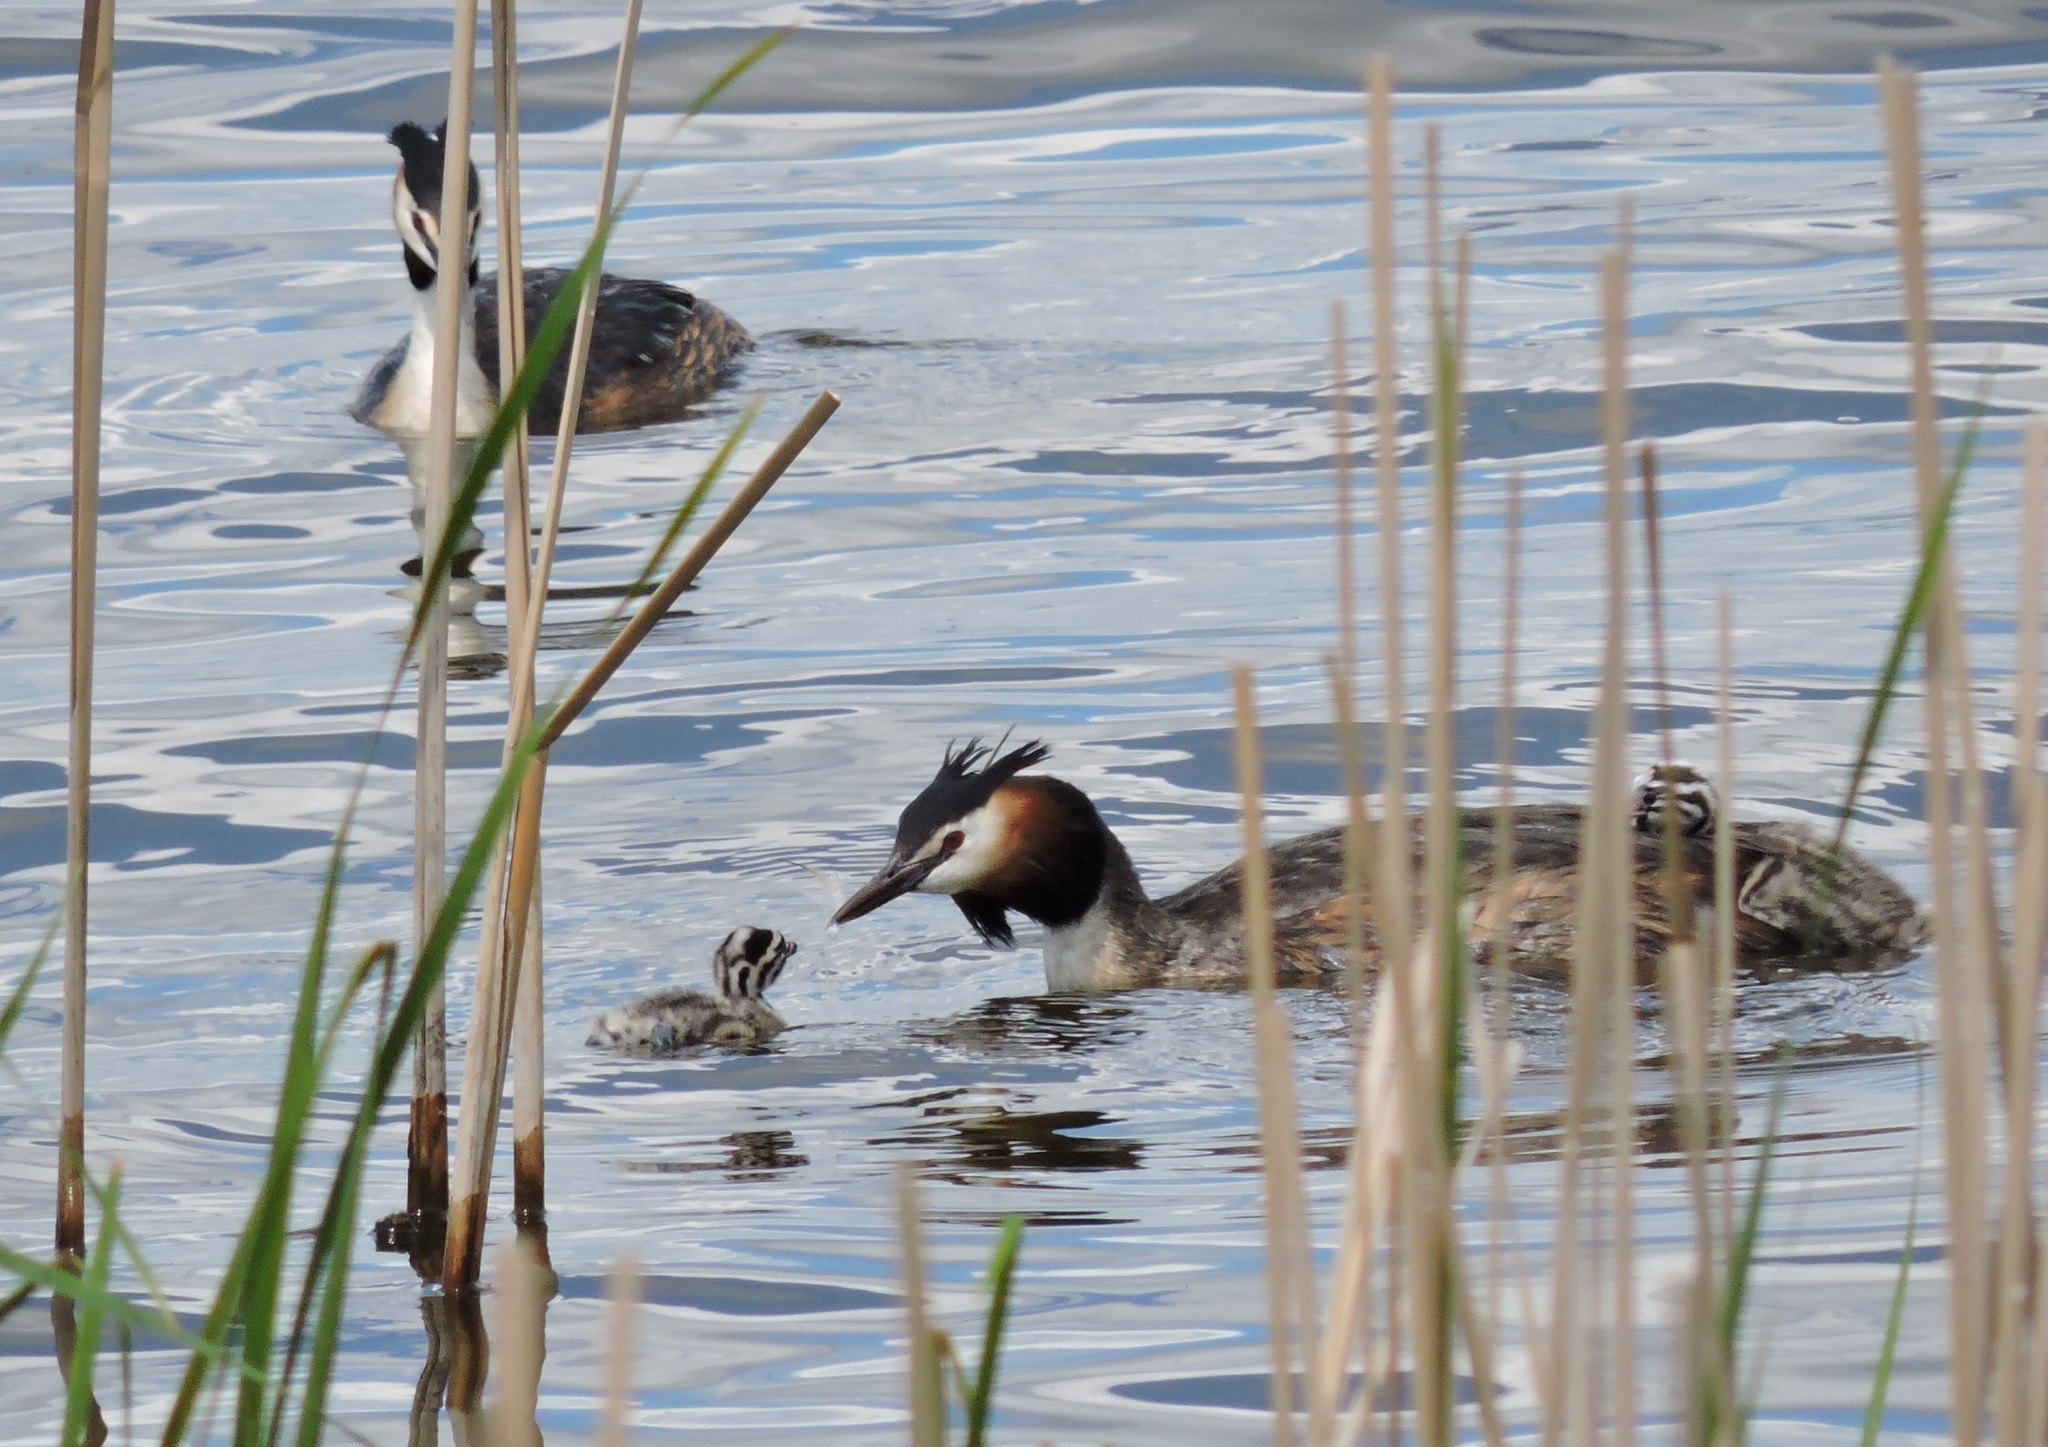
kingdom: Animalia
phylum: Chordata
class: Aves
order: Podicipediformes
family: Podicipedidae
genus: Podiceps
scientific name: Podiceps cristatus
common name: Great crested grebe
